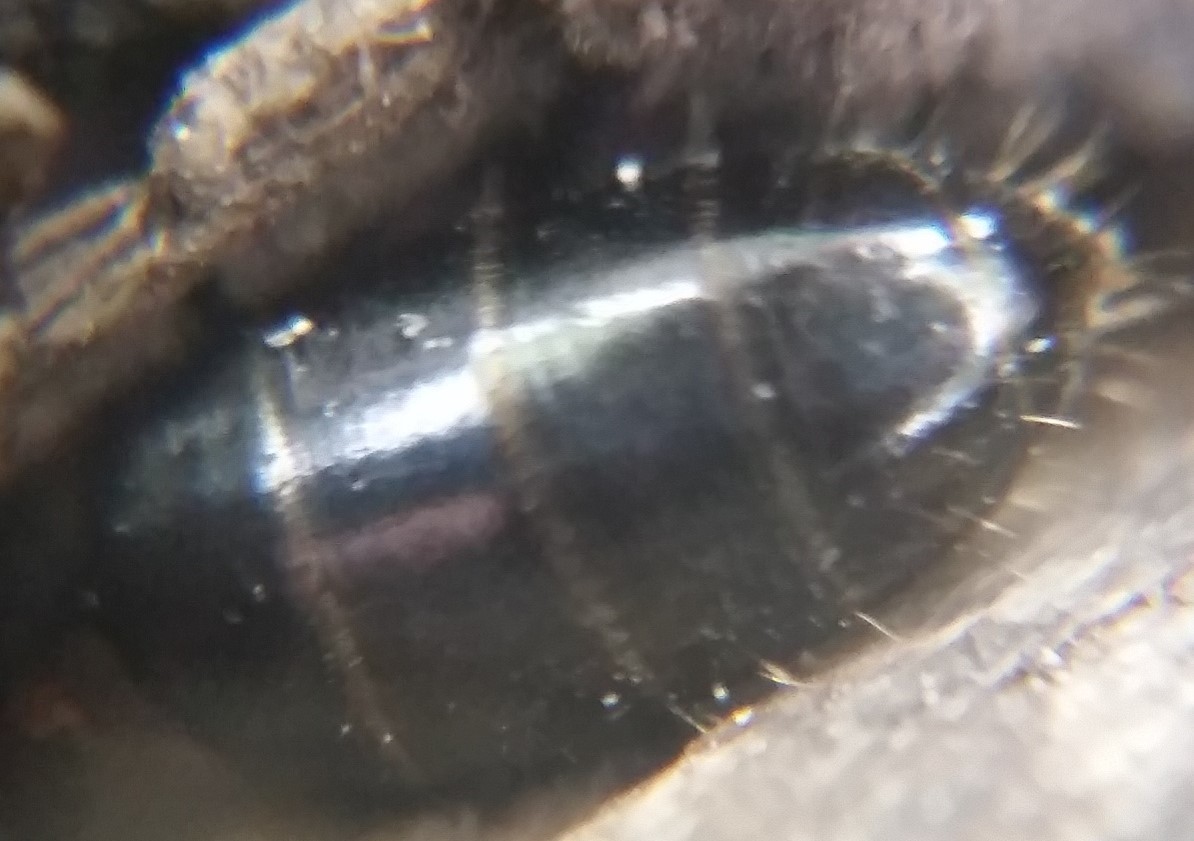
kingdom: Animalia
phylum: Arthropoda
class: Malacostraca
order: Isopoda
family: Armadillidiidae
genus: Armadillidium
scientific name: Armadillidium vulgare
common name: Common pill woodlouse
